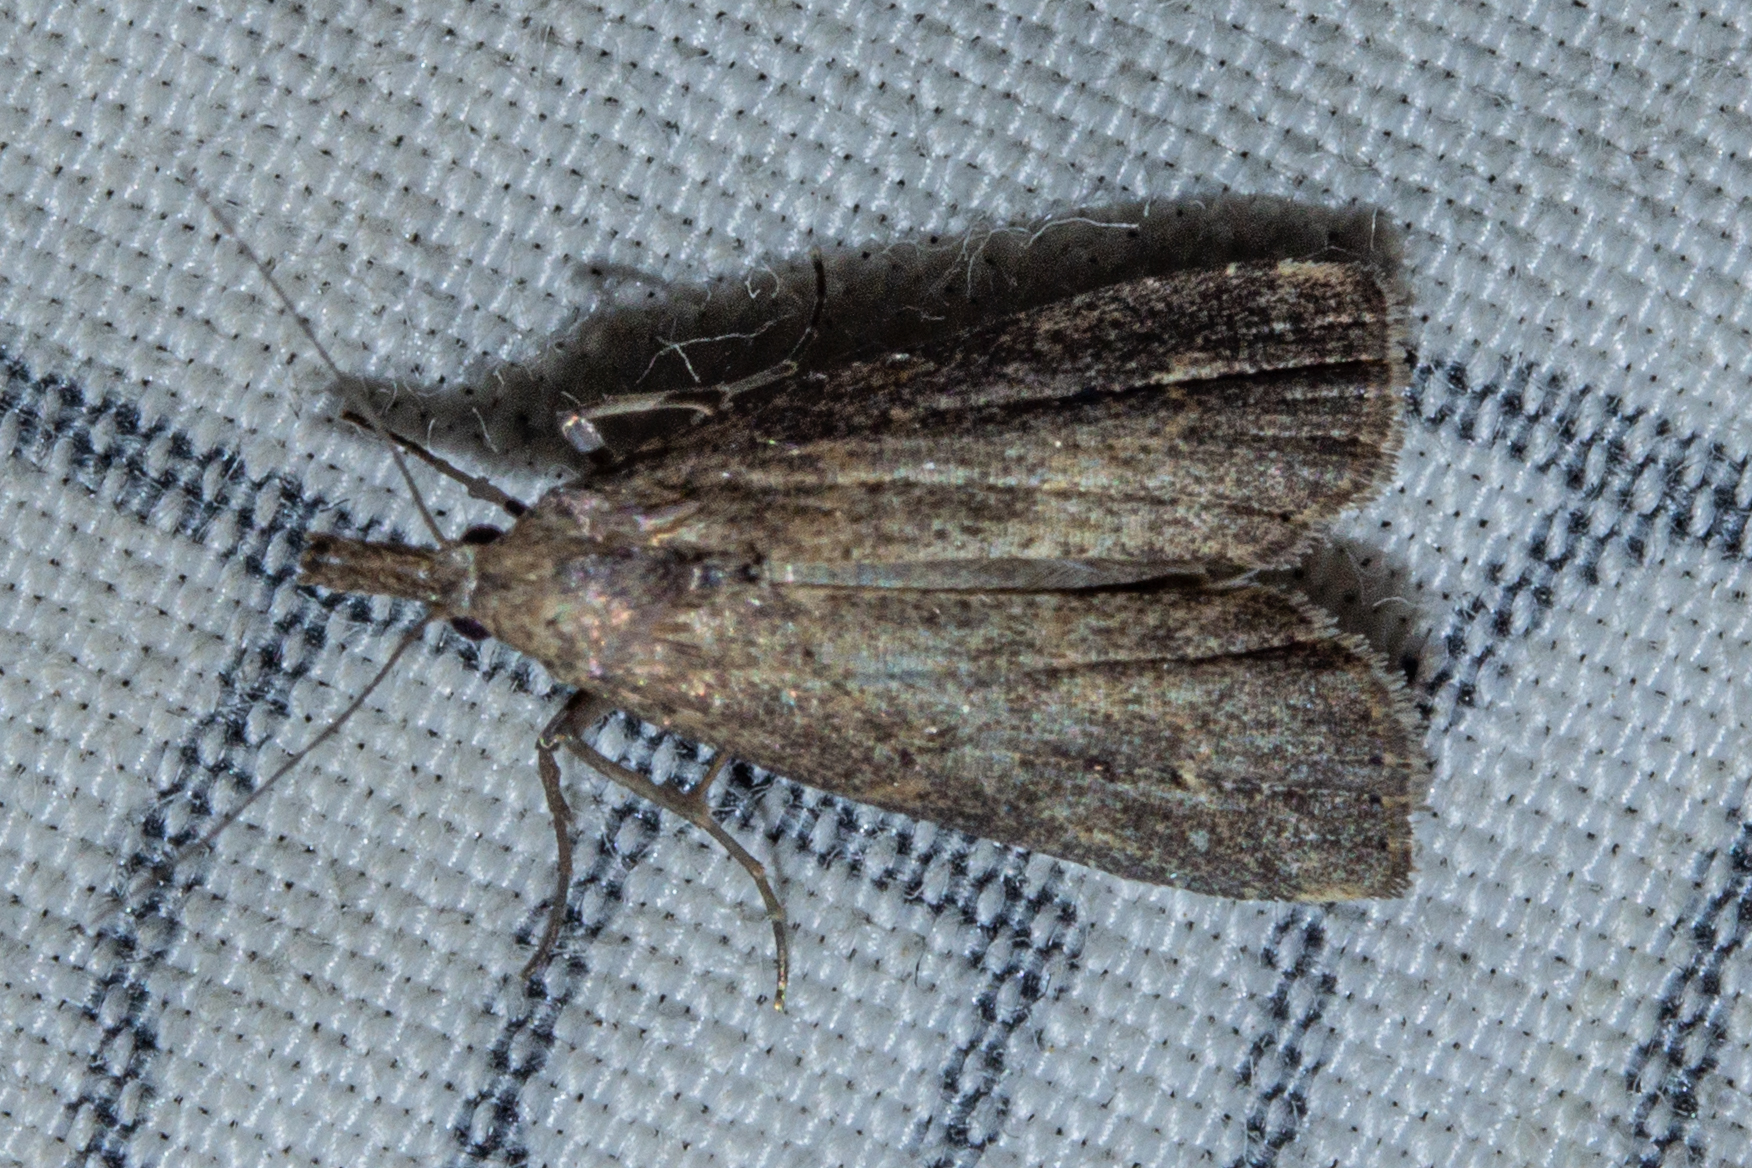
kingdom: Animalia
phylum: Arthropoda
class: Insecta
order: Lepidoptera
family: Erebidae
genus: Schrankia
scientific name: Schrankia costaestrigalis
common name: Pinion-streaked snout
